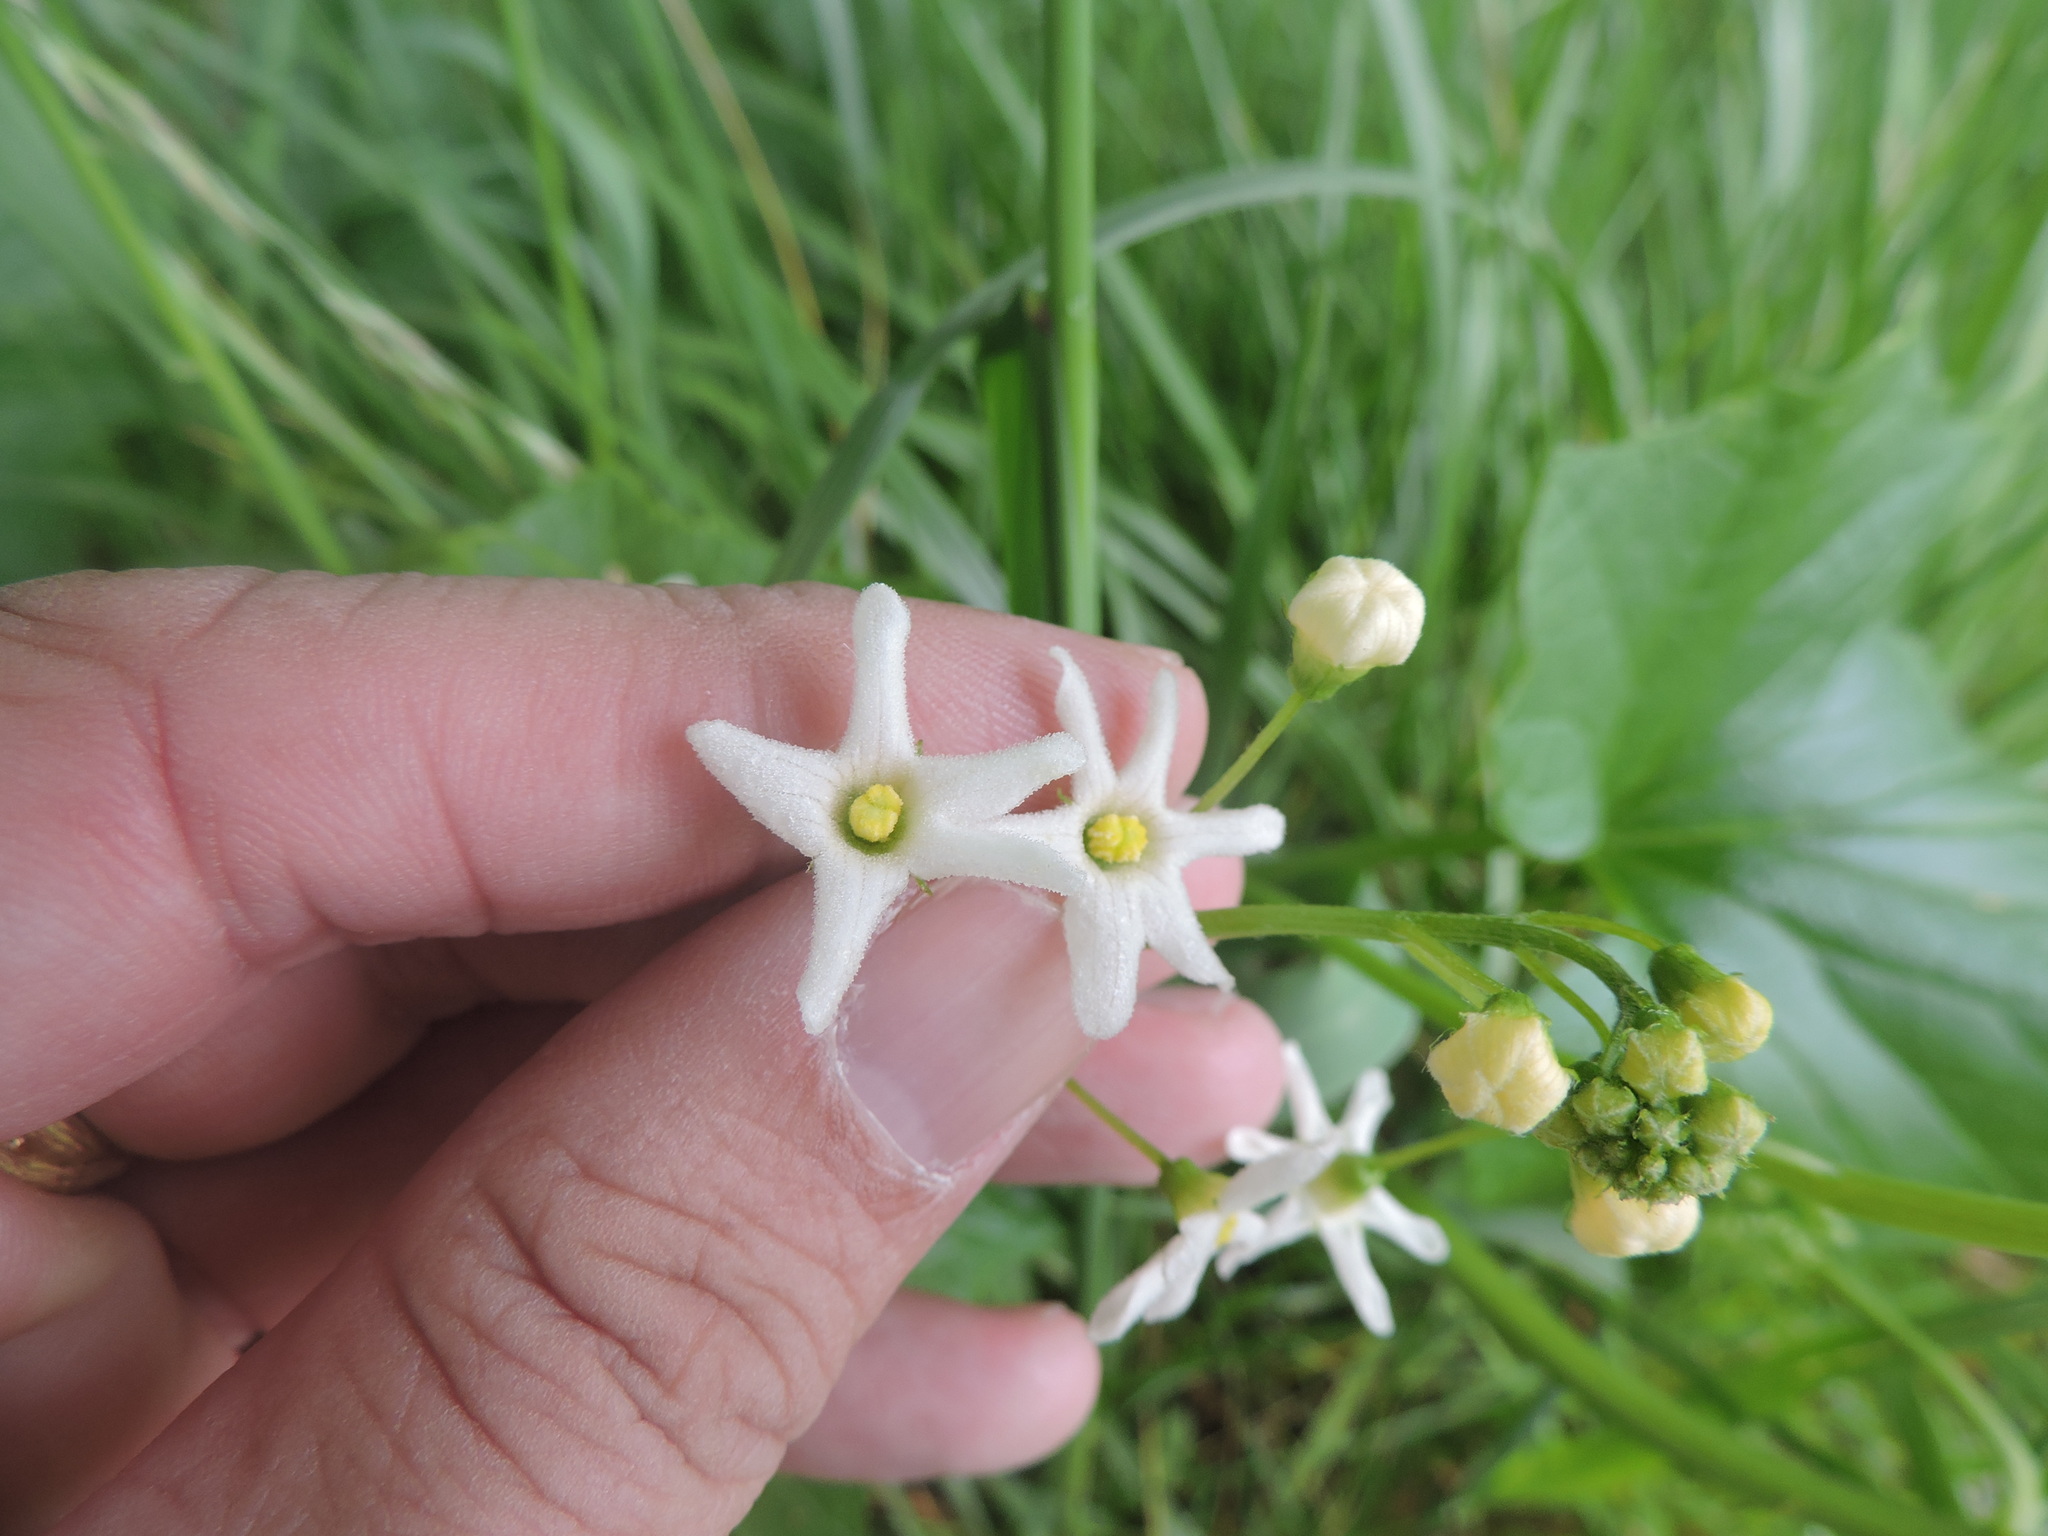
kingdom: Plantae
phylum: Tracheophyta
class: Magnoliopsida
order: Cucurbitales
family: Cucurbitaceae
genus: Marah
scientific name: Marah oregana
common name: Coastal manroot
